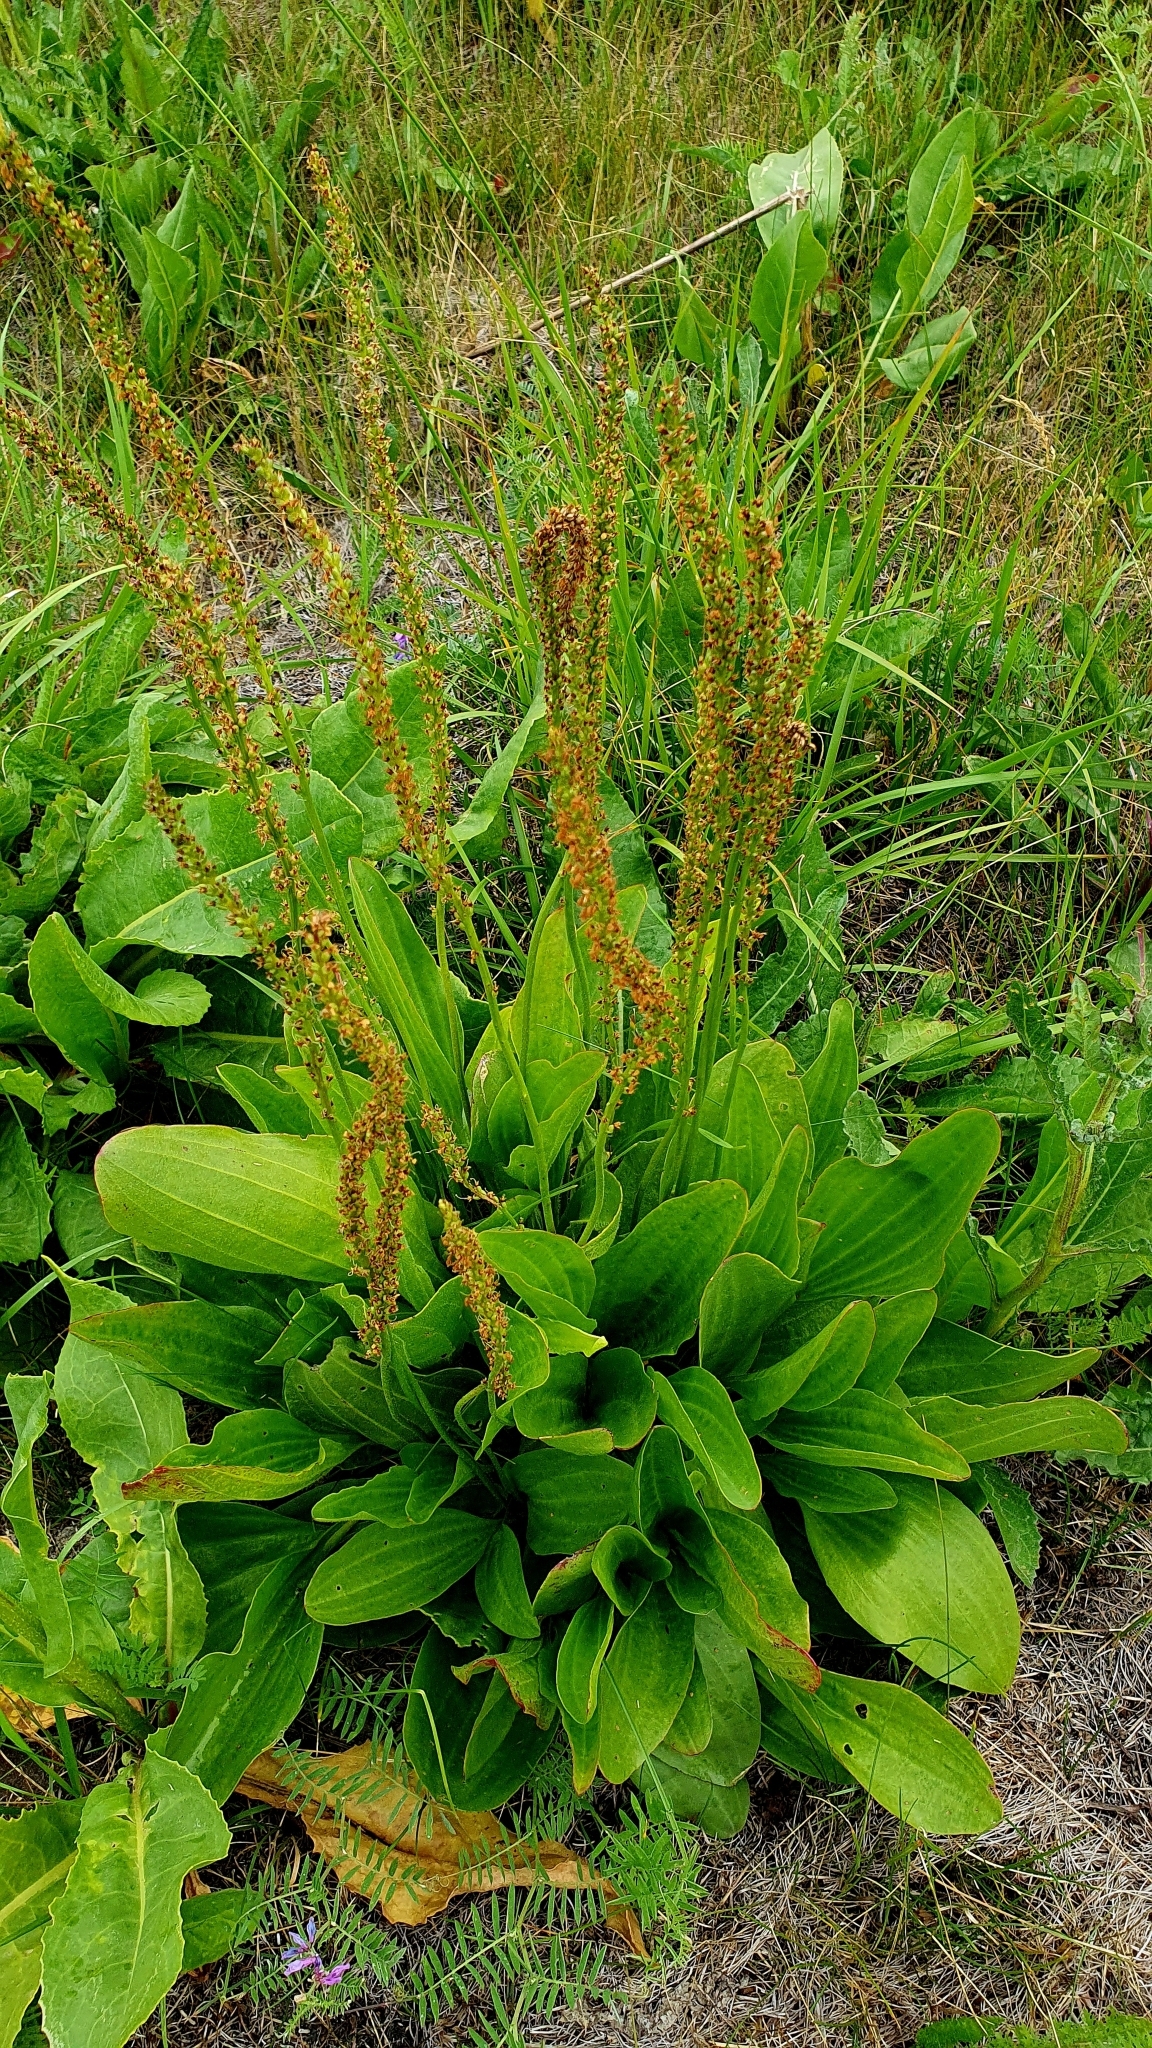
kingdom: Plantae
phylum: Tracheophyta
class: Magnoliopsida
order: Lamiales
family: Plantaginaceae
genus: Plantago
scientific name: Plantago cornuti
